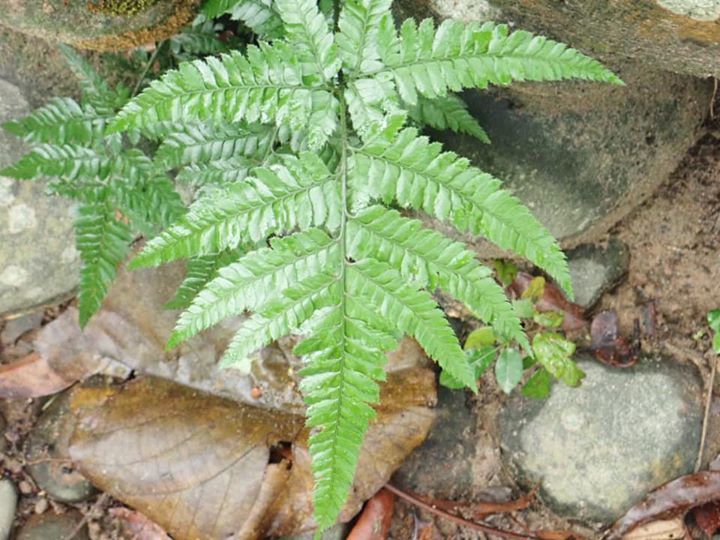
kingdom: Plantae
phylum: Tracheophyta
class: Polypodiopsida
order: Polypodiales
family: Dryopteridaceae
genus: Arachniodes
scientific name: Arachniodes pseudoaristata
